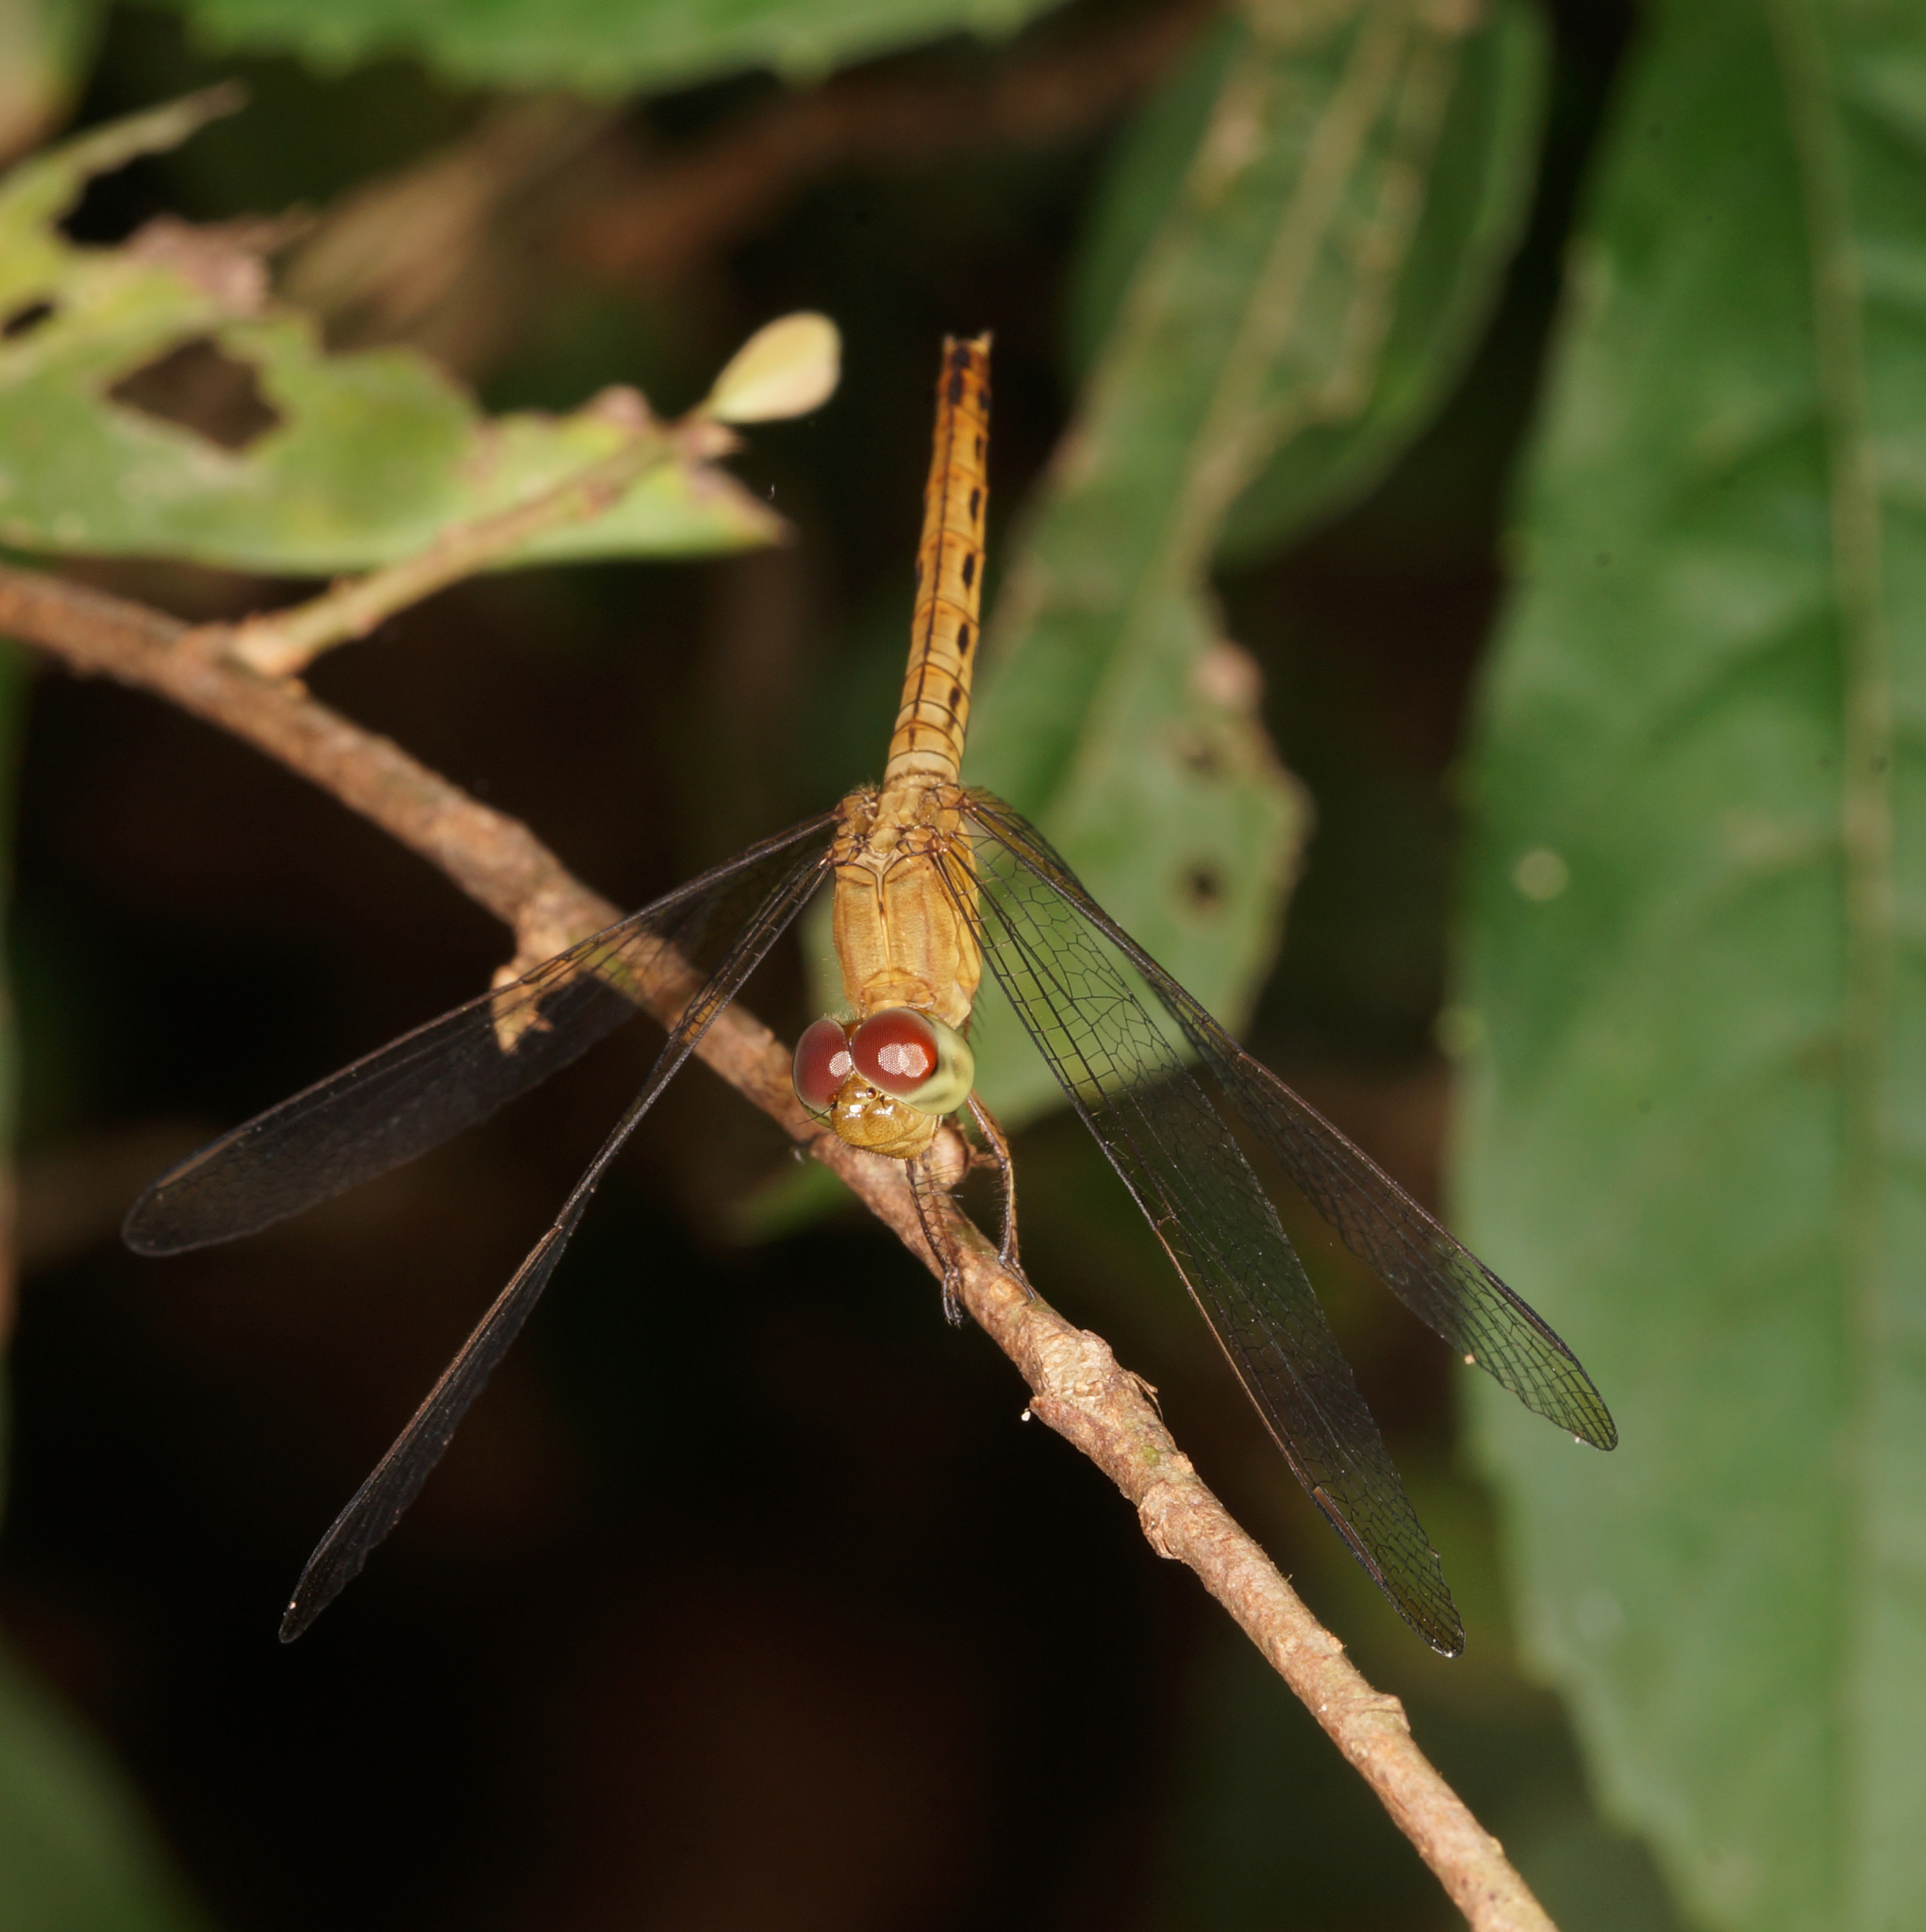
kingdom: Animalia
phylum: Arthropoda
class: Insecta
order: Odonata
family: Libellulidae
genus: Neurothemis
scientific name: Neurothemis fluctuans
